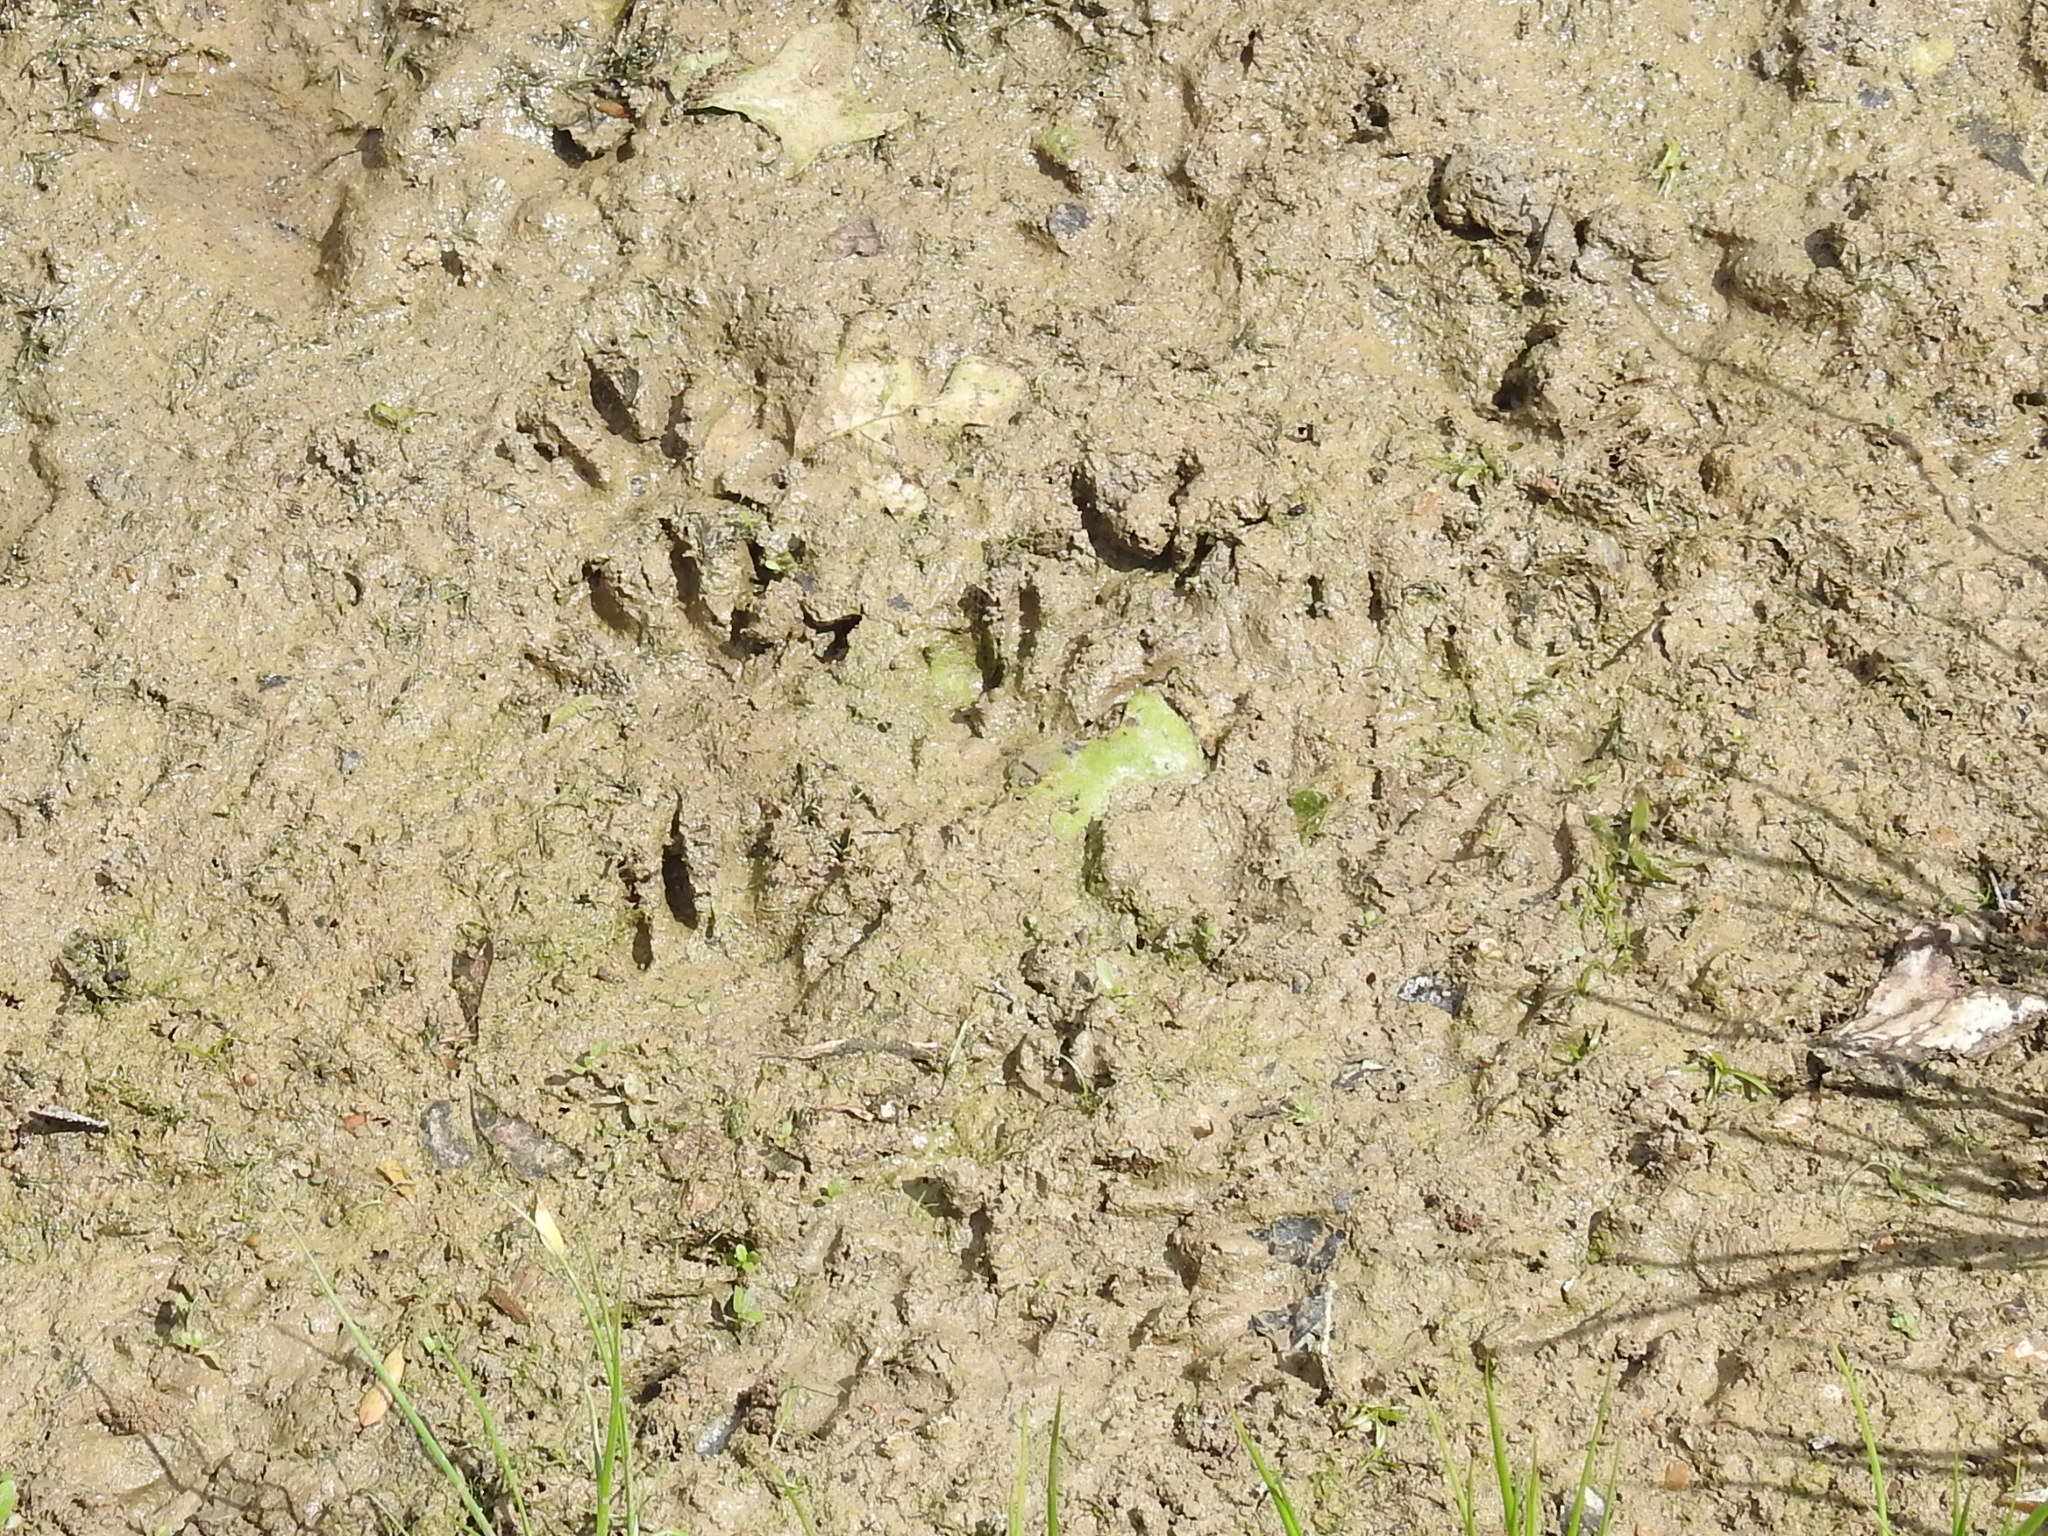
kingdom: Animalia
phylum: Chordata
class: Mammalia
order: Carnivora
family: Procyonidae
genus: Procyon
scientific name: Procyon lotor
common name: Raccoon
